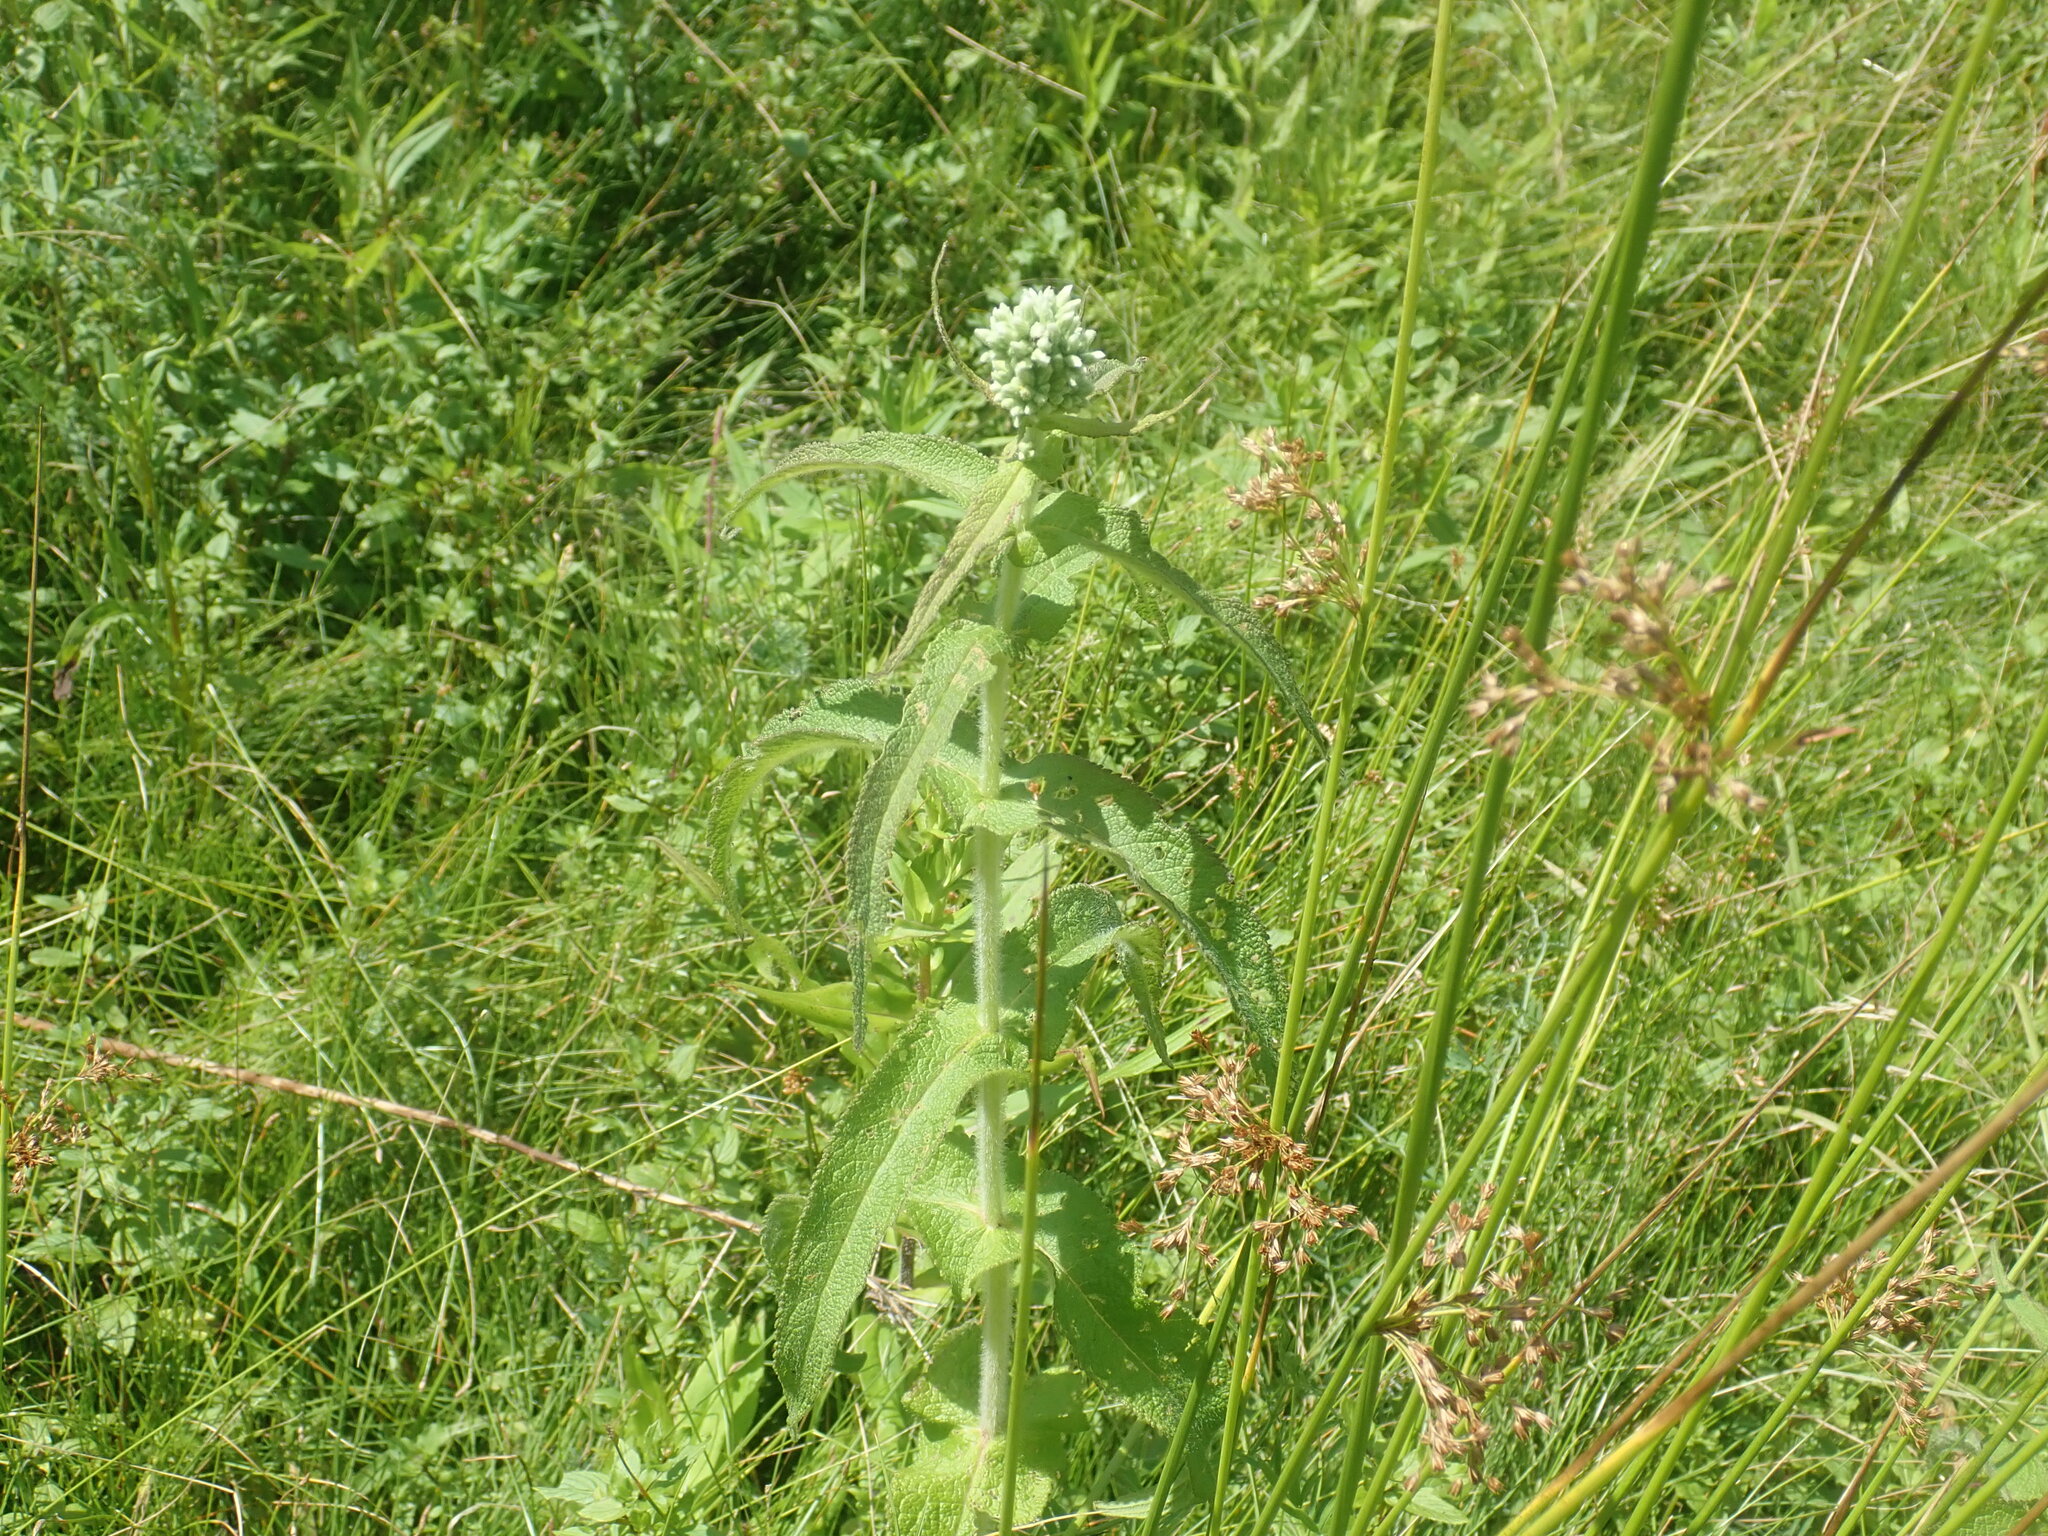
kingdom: Plantae
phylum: Tracheophyta
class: Magnoliopsida
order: Asterales
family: Asteraceae
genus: Eupatorium
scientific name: Eupatorium perfoliatum
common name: Boneset
